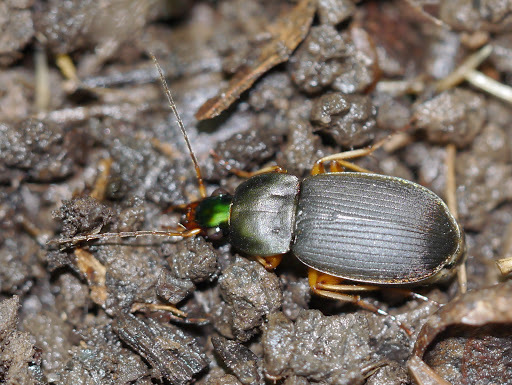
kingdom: Animalia
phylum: Arthropoda
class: Insecta
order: Coleoptera
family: Carabidae
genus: Chlaenius
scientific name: Chlaenius impunctifrons
